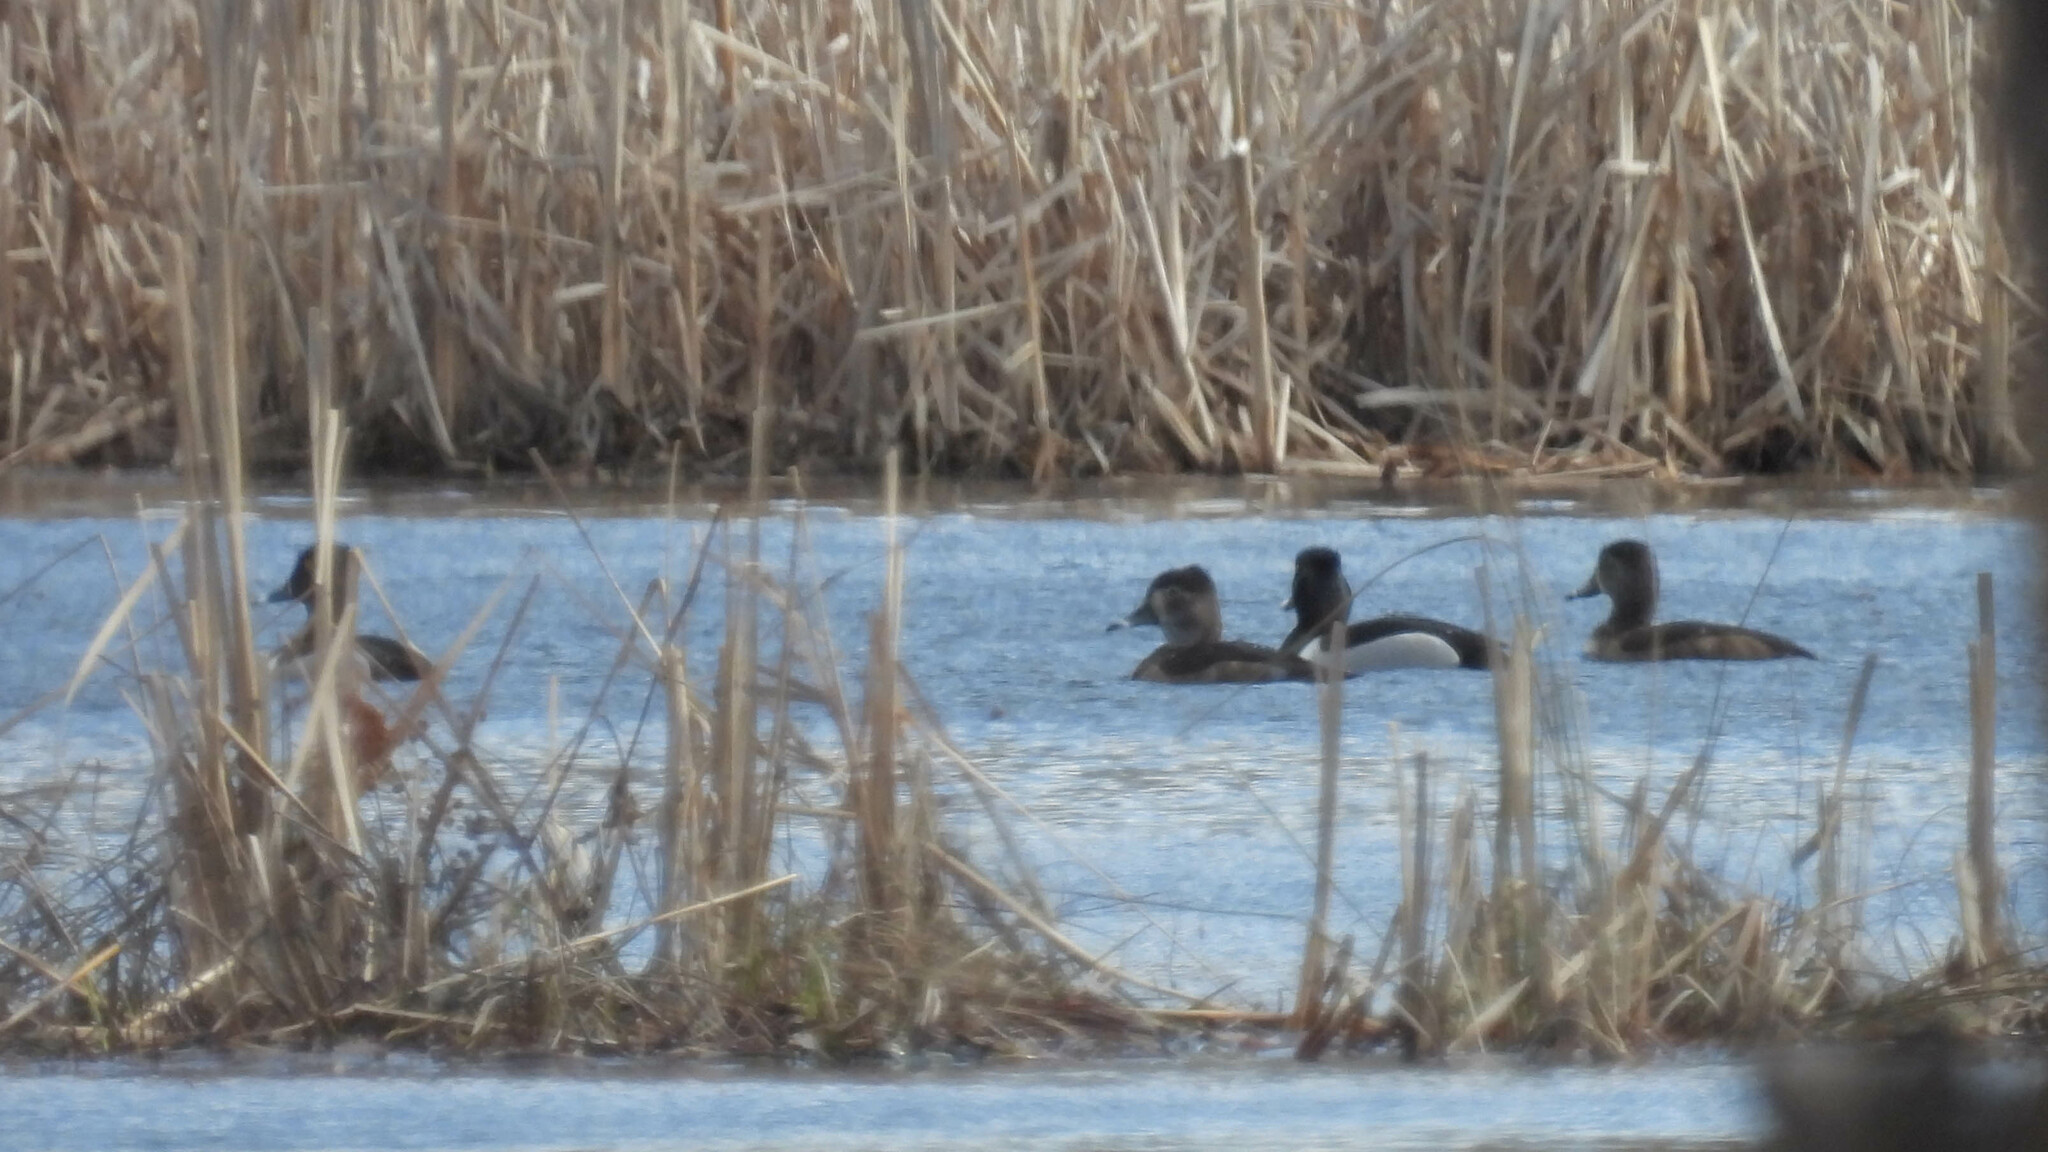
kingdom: Animalia
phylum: Chordata
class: Aves
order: Anseriformes
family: Anatidae
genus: Aythya
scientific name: Aythya collaris
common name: Ring-necked duck
